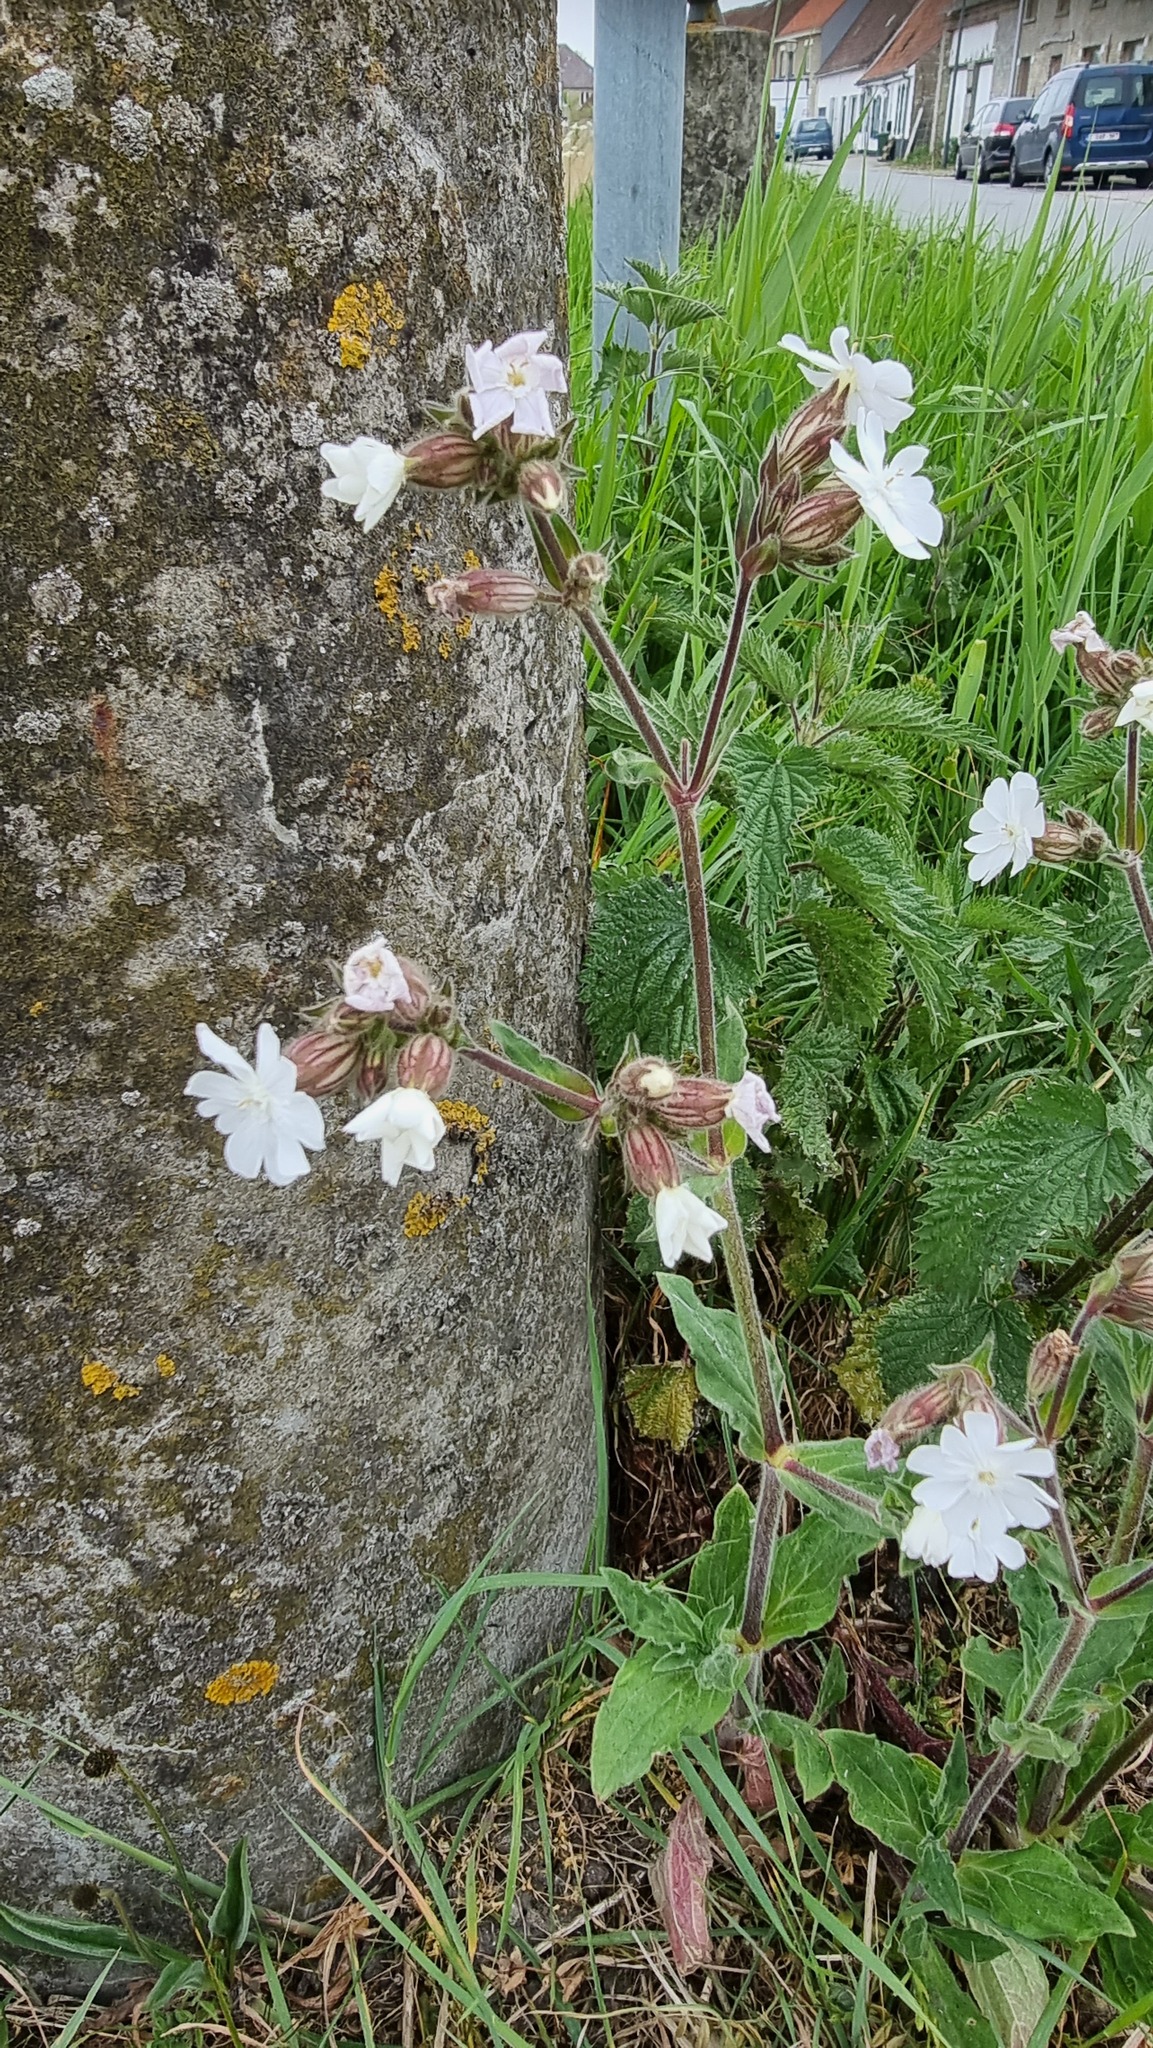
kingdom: Plantae
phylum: Tracheophyta
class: Magnoliopsida
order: Caryophyllales
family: Caryophyllaceae
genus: Silene
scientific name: Silene latifolia
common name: White campion
